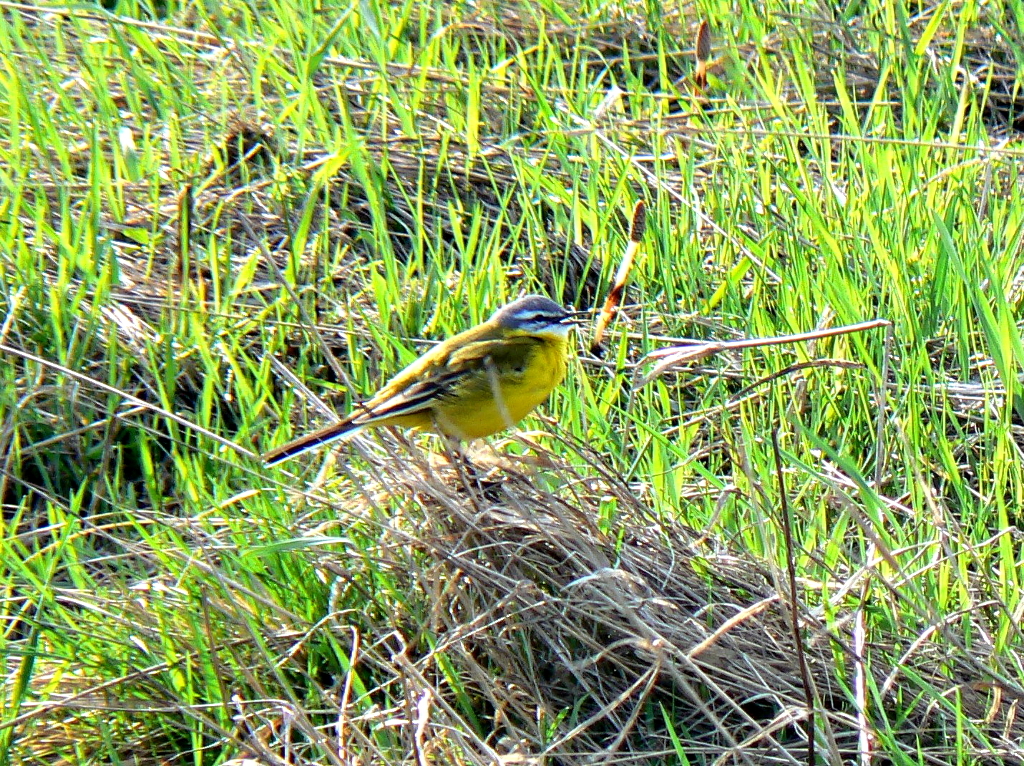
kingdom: Animalia
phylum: Chordata
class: Aves
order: Passeriformes
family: Motacillidae
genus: Motacilla
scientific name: Motacilla flava
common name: Western yellow wagtail
